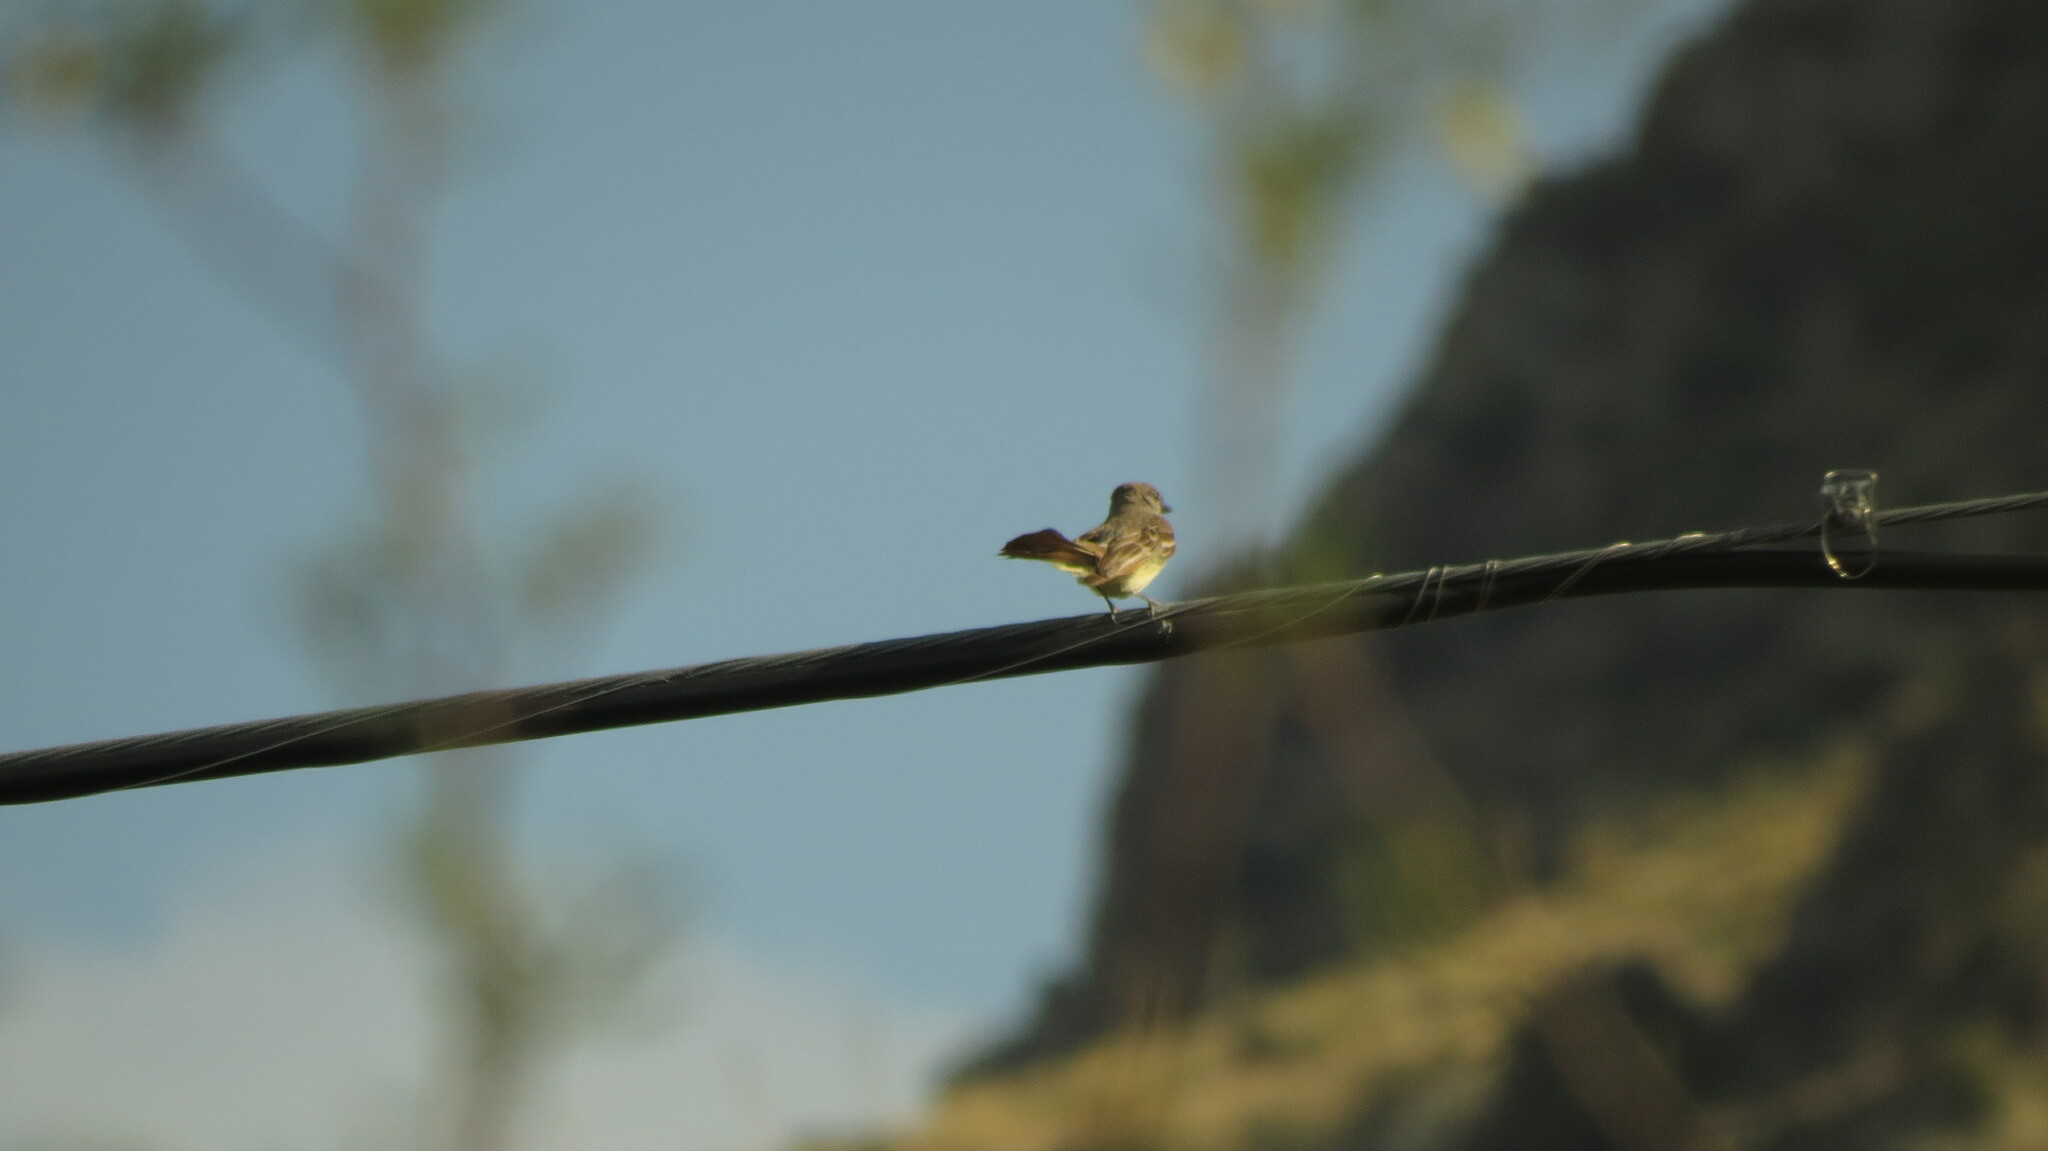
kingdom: Animalia
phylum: Chordata
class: Aves
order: Passeriformes
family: Tyrannidae
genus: Myiarchus
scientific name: Myiarchus tyrannulus
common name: Brown-crested flycatcher
